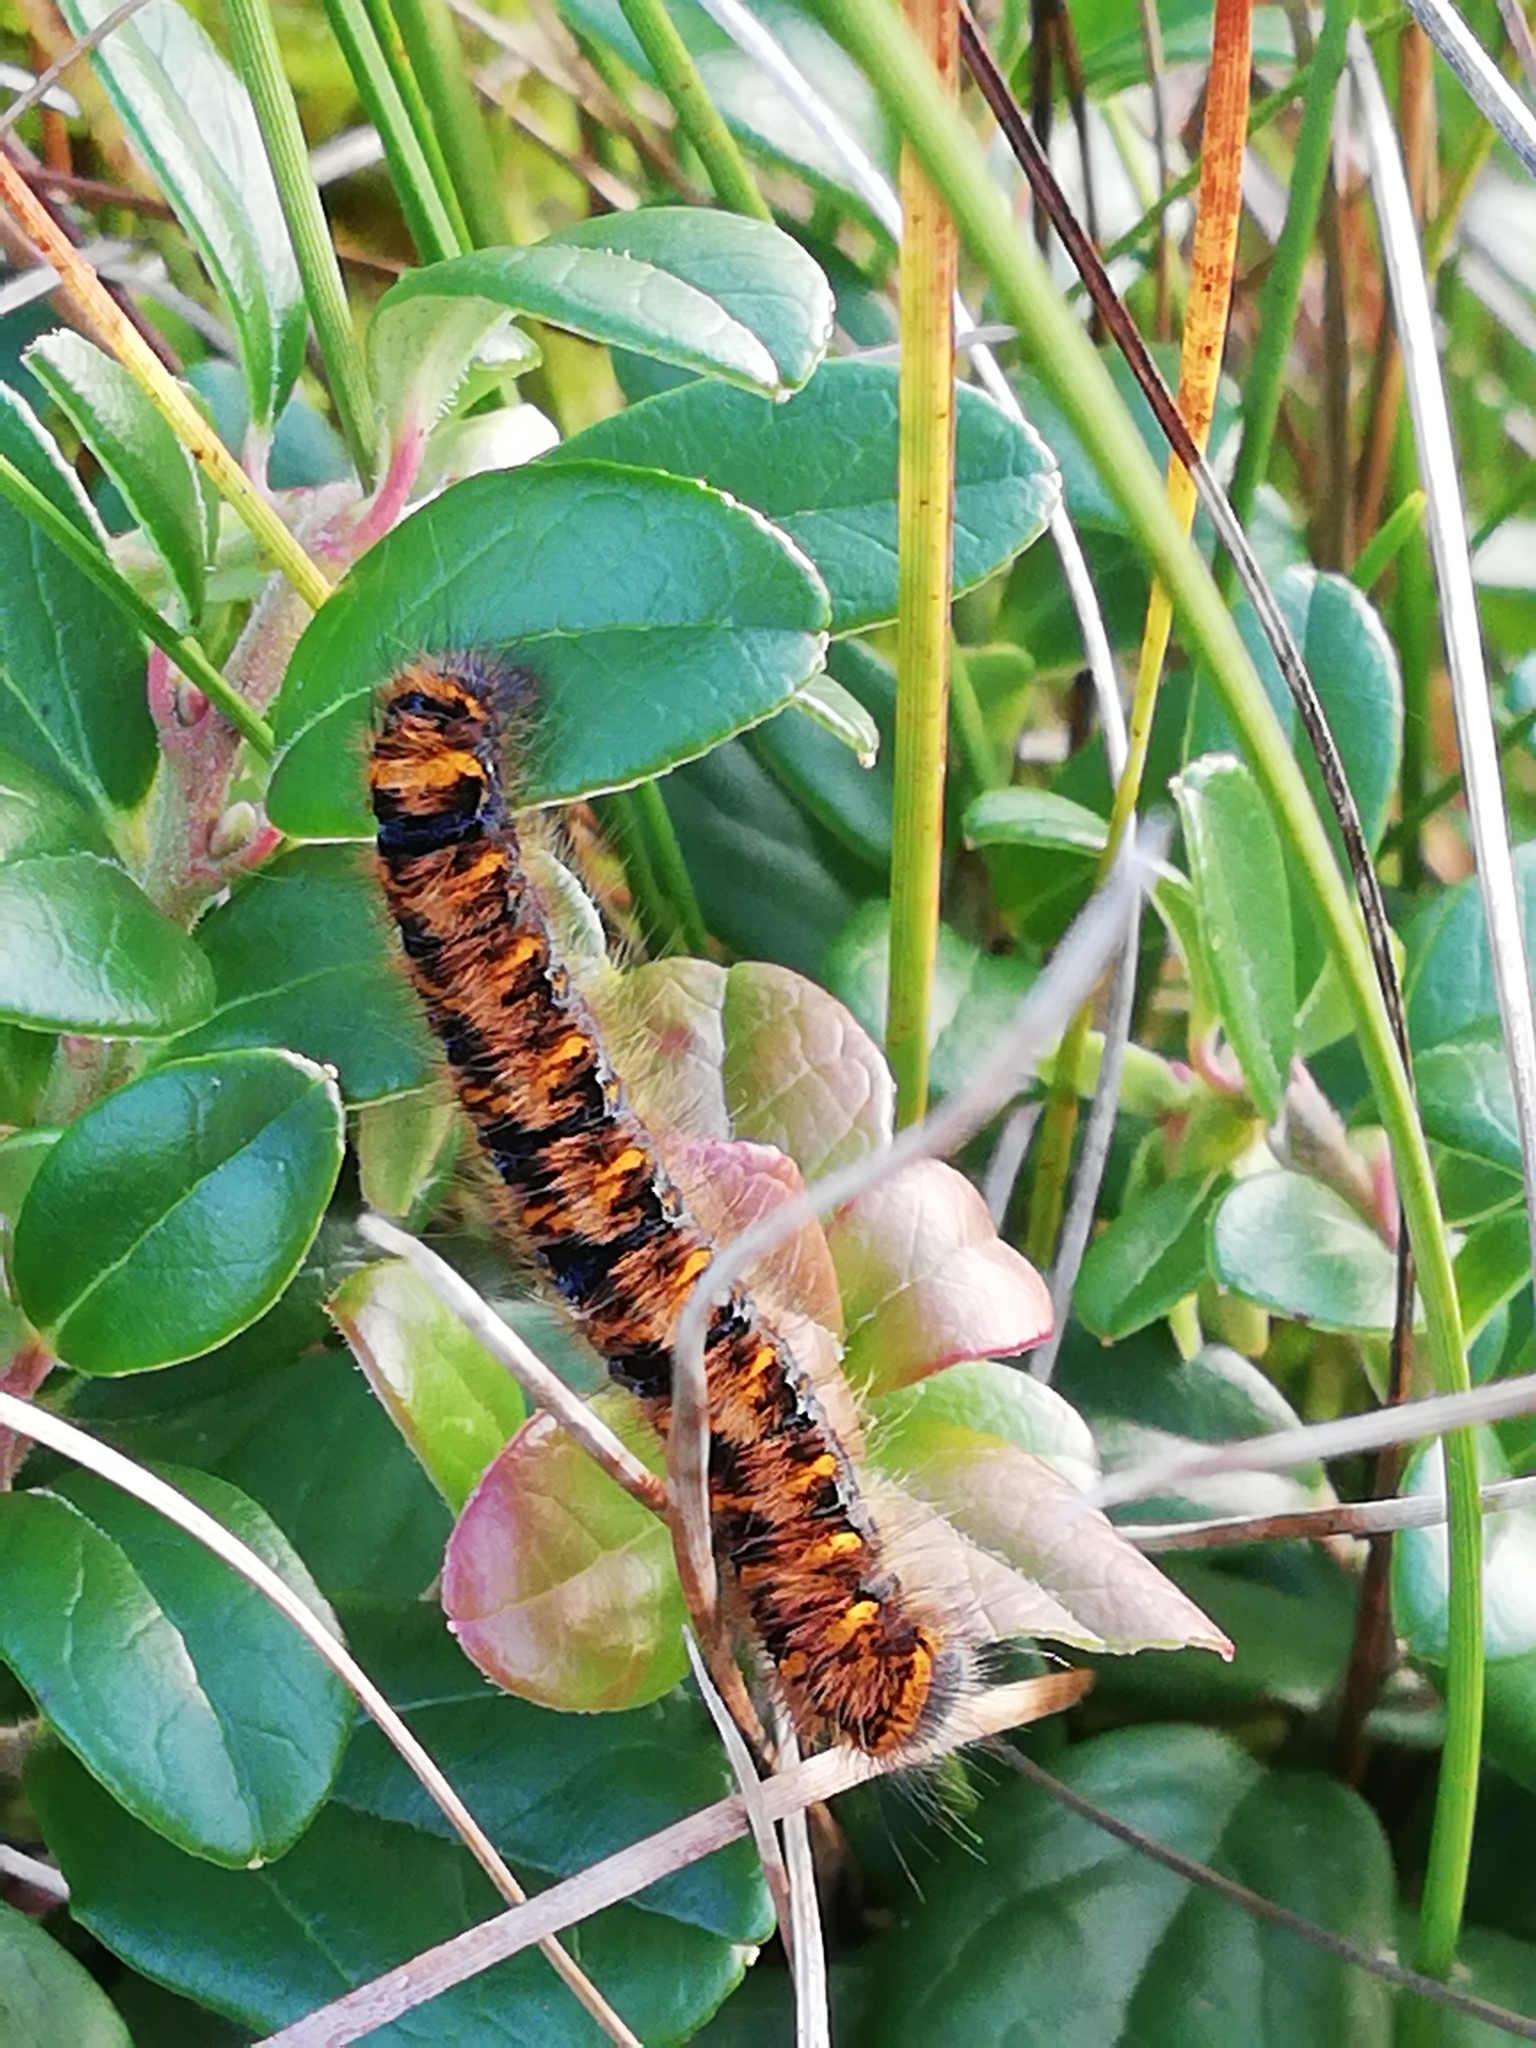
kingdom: Animalia
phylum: Arthropoda
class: Insecta
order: Lepidoptera
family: Lasiocampidae
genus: Lasiocampa
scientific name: Lasiocampa quercus
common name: Oak eggar
